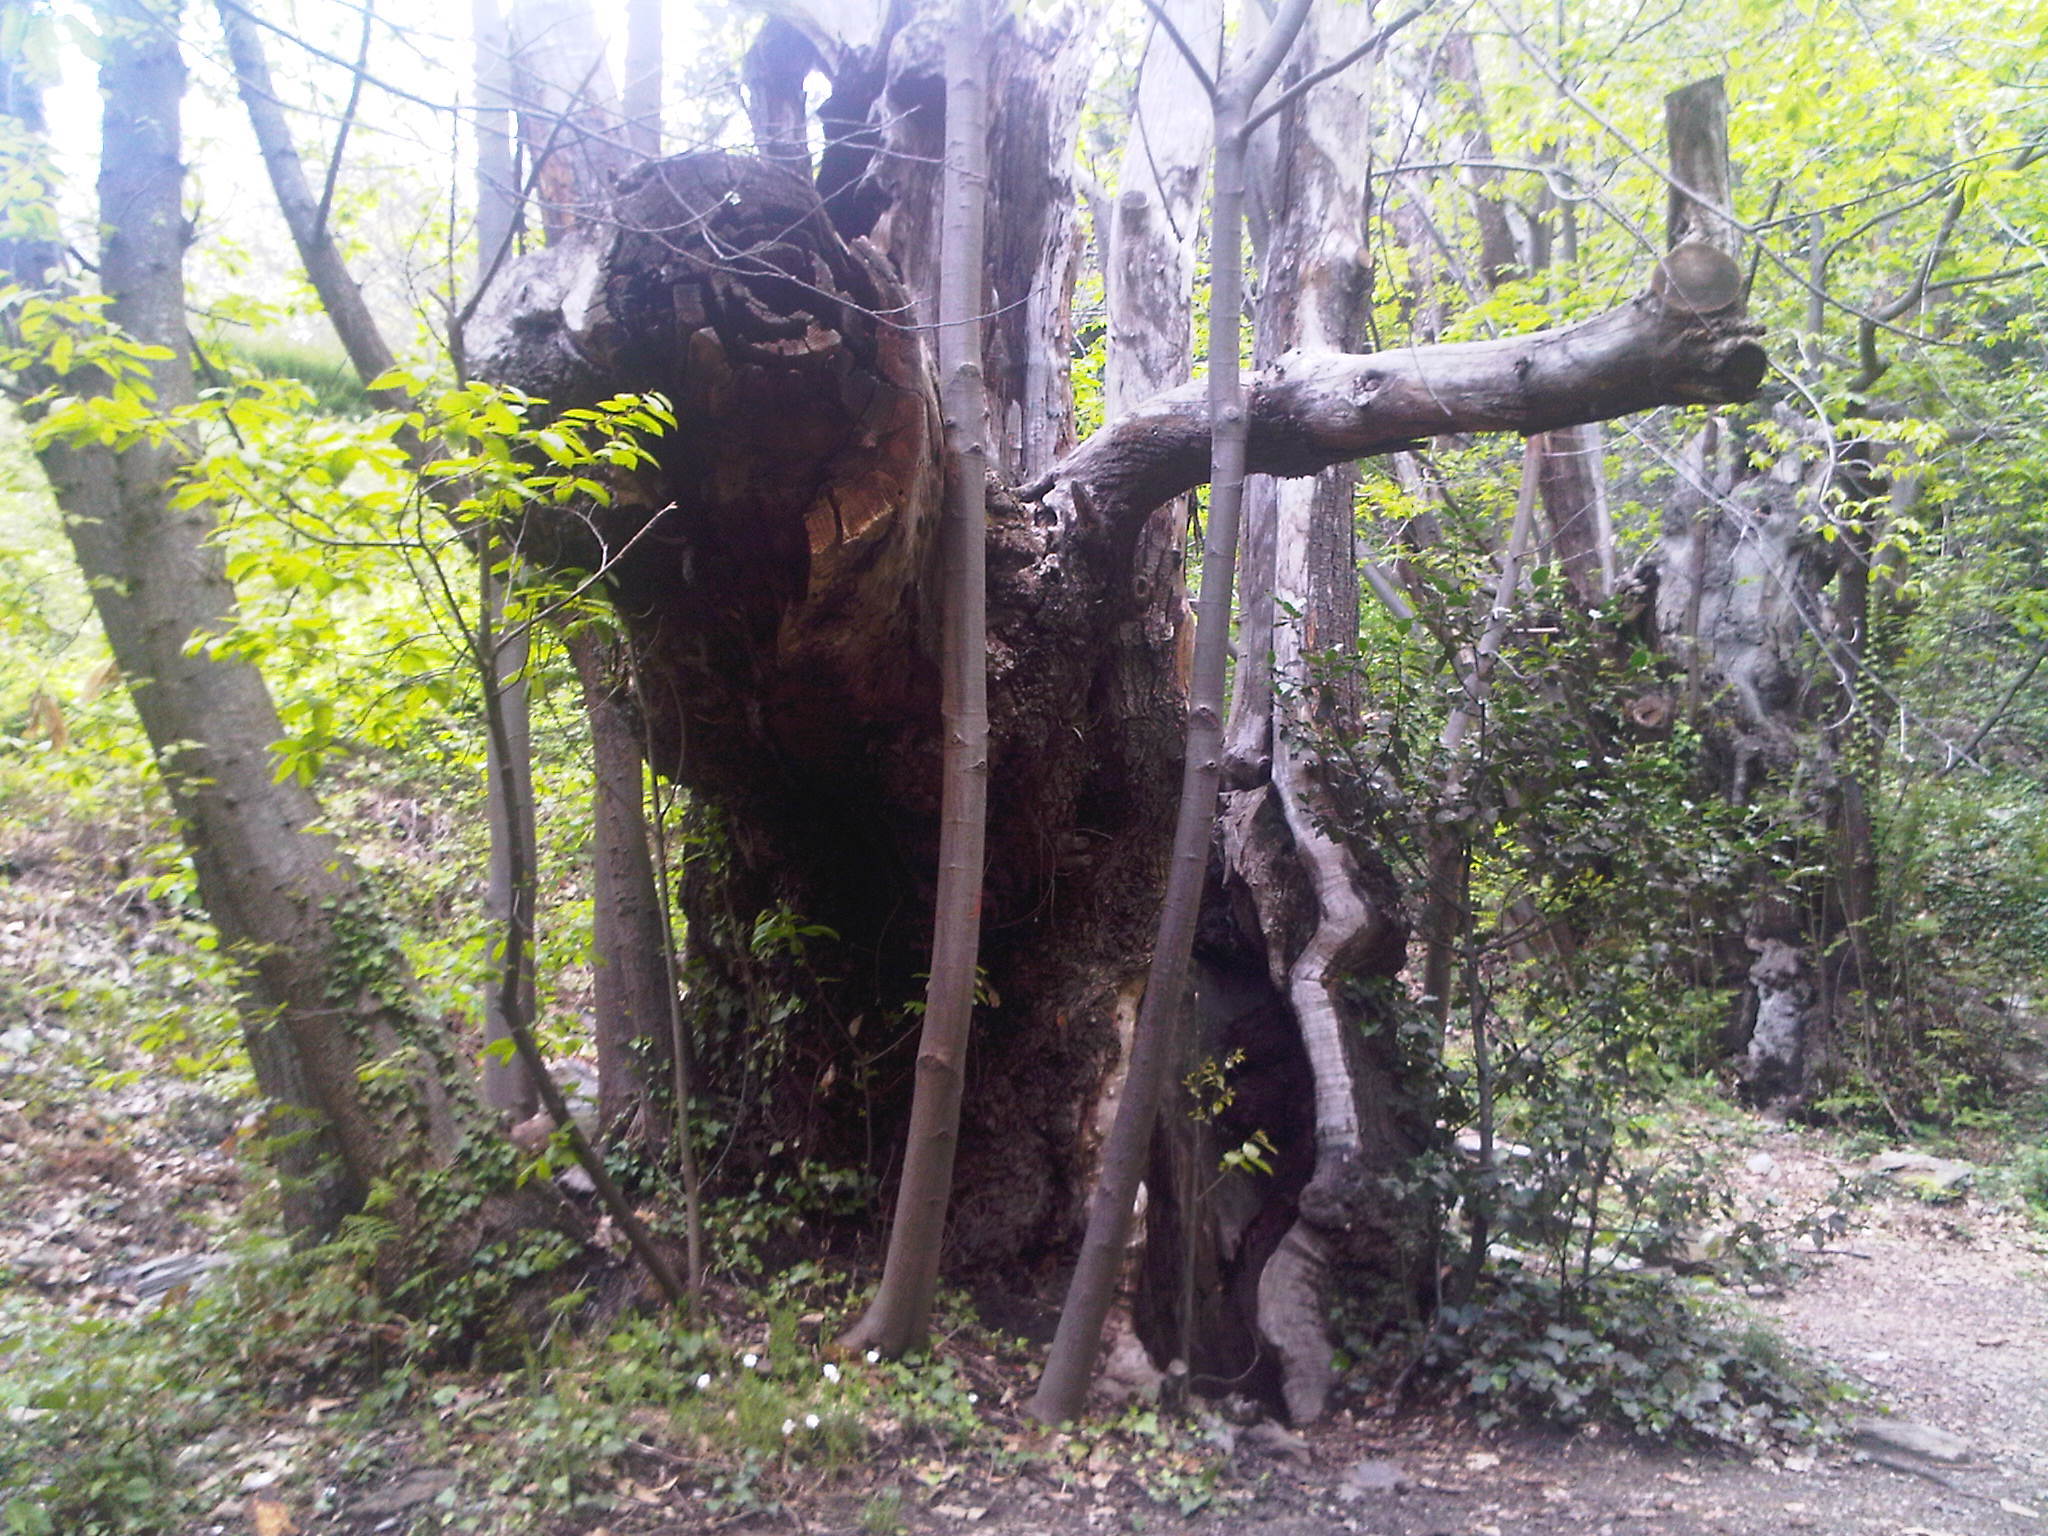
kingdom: Plantae
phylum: Tracheophyta
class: Magnoliopsida
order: Fagales
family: Fagaceae
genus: Castanea
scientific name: Castanea sativa
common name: Sweet chestnut
